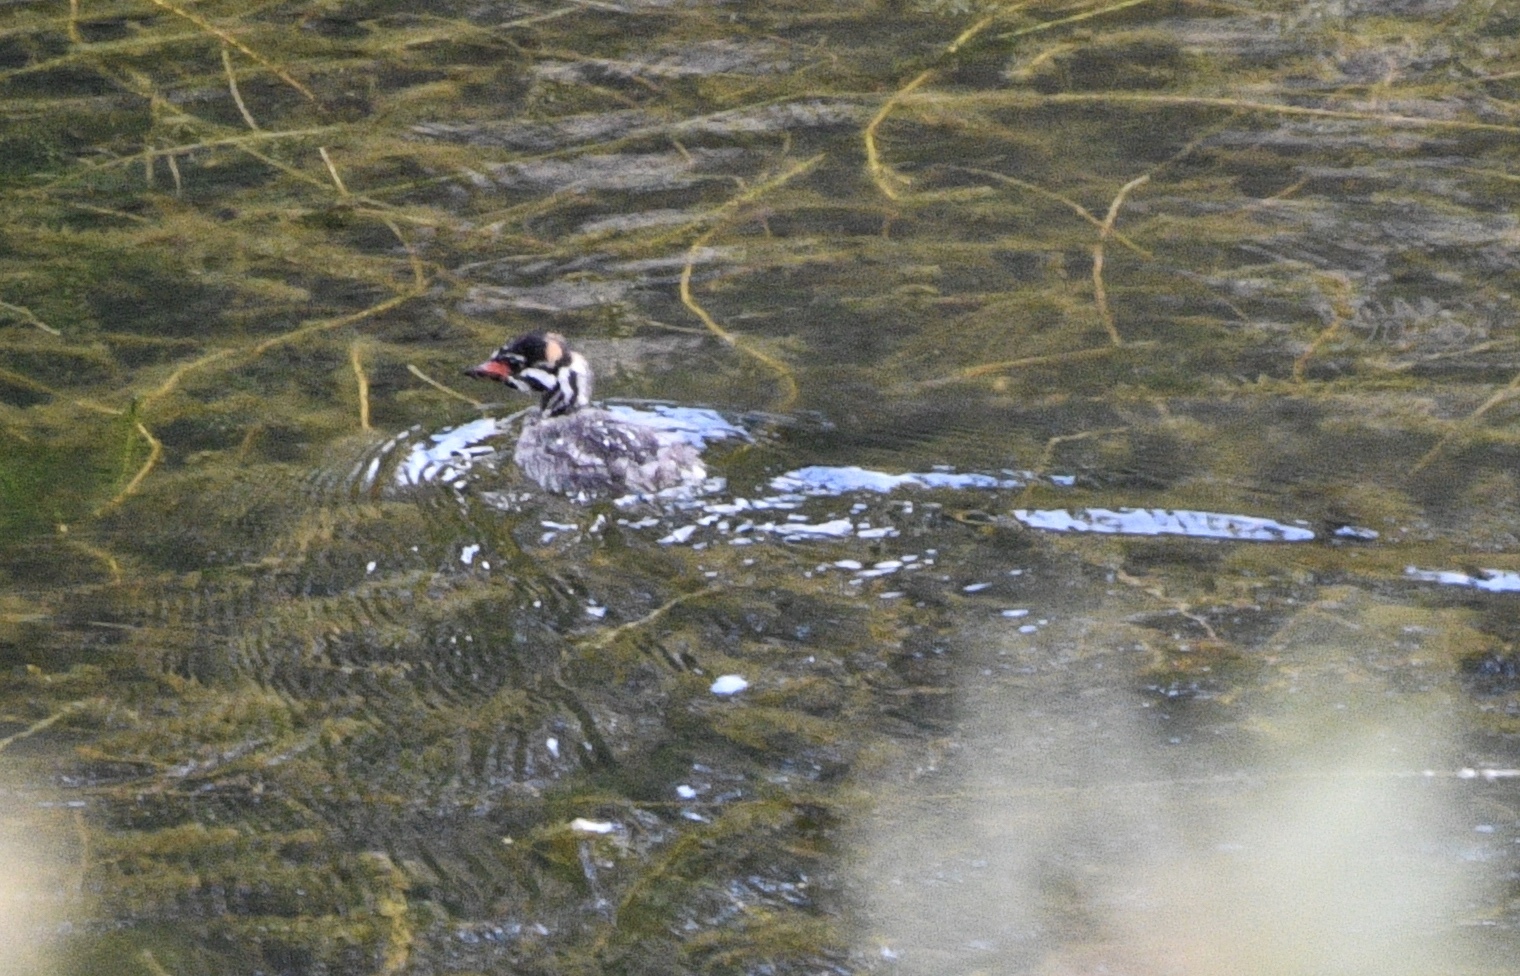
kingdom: Animalia
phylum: Chordata
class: Aves
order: Podicipediformes
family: Podicipedidae
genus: Podilymbus
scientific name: Podilymbus podiceps
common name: Pied-billed grebe
